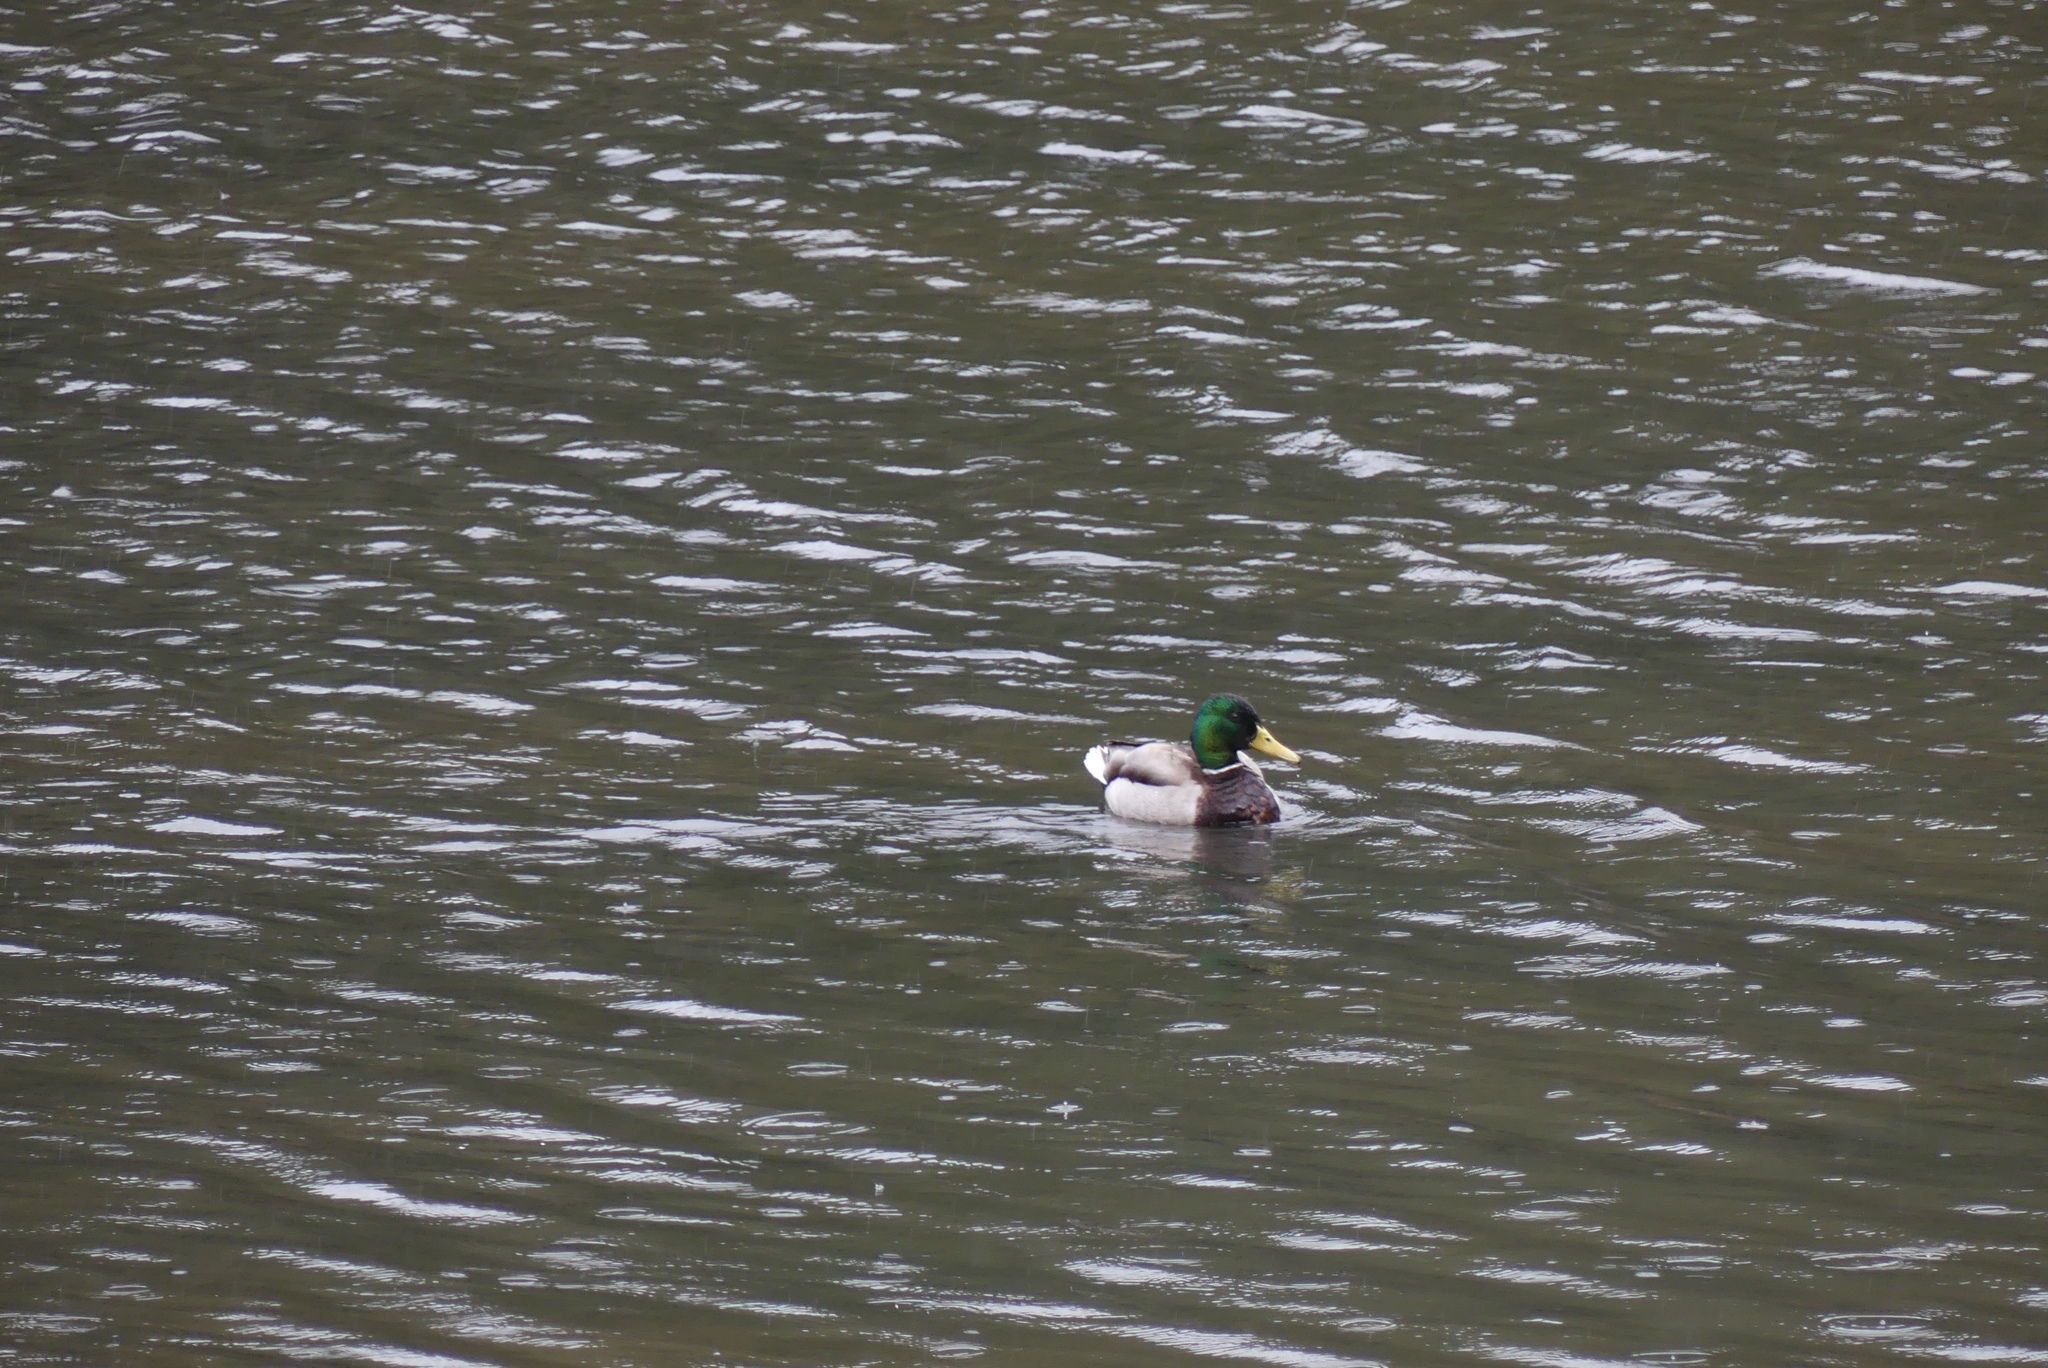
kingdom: Animalia
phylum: Chordata
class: Aves
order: Anseriformes
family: Anatidae
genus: Anas
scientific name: Anas platyrhynchos
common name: Mallard
